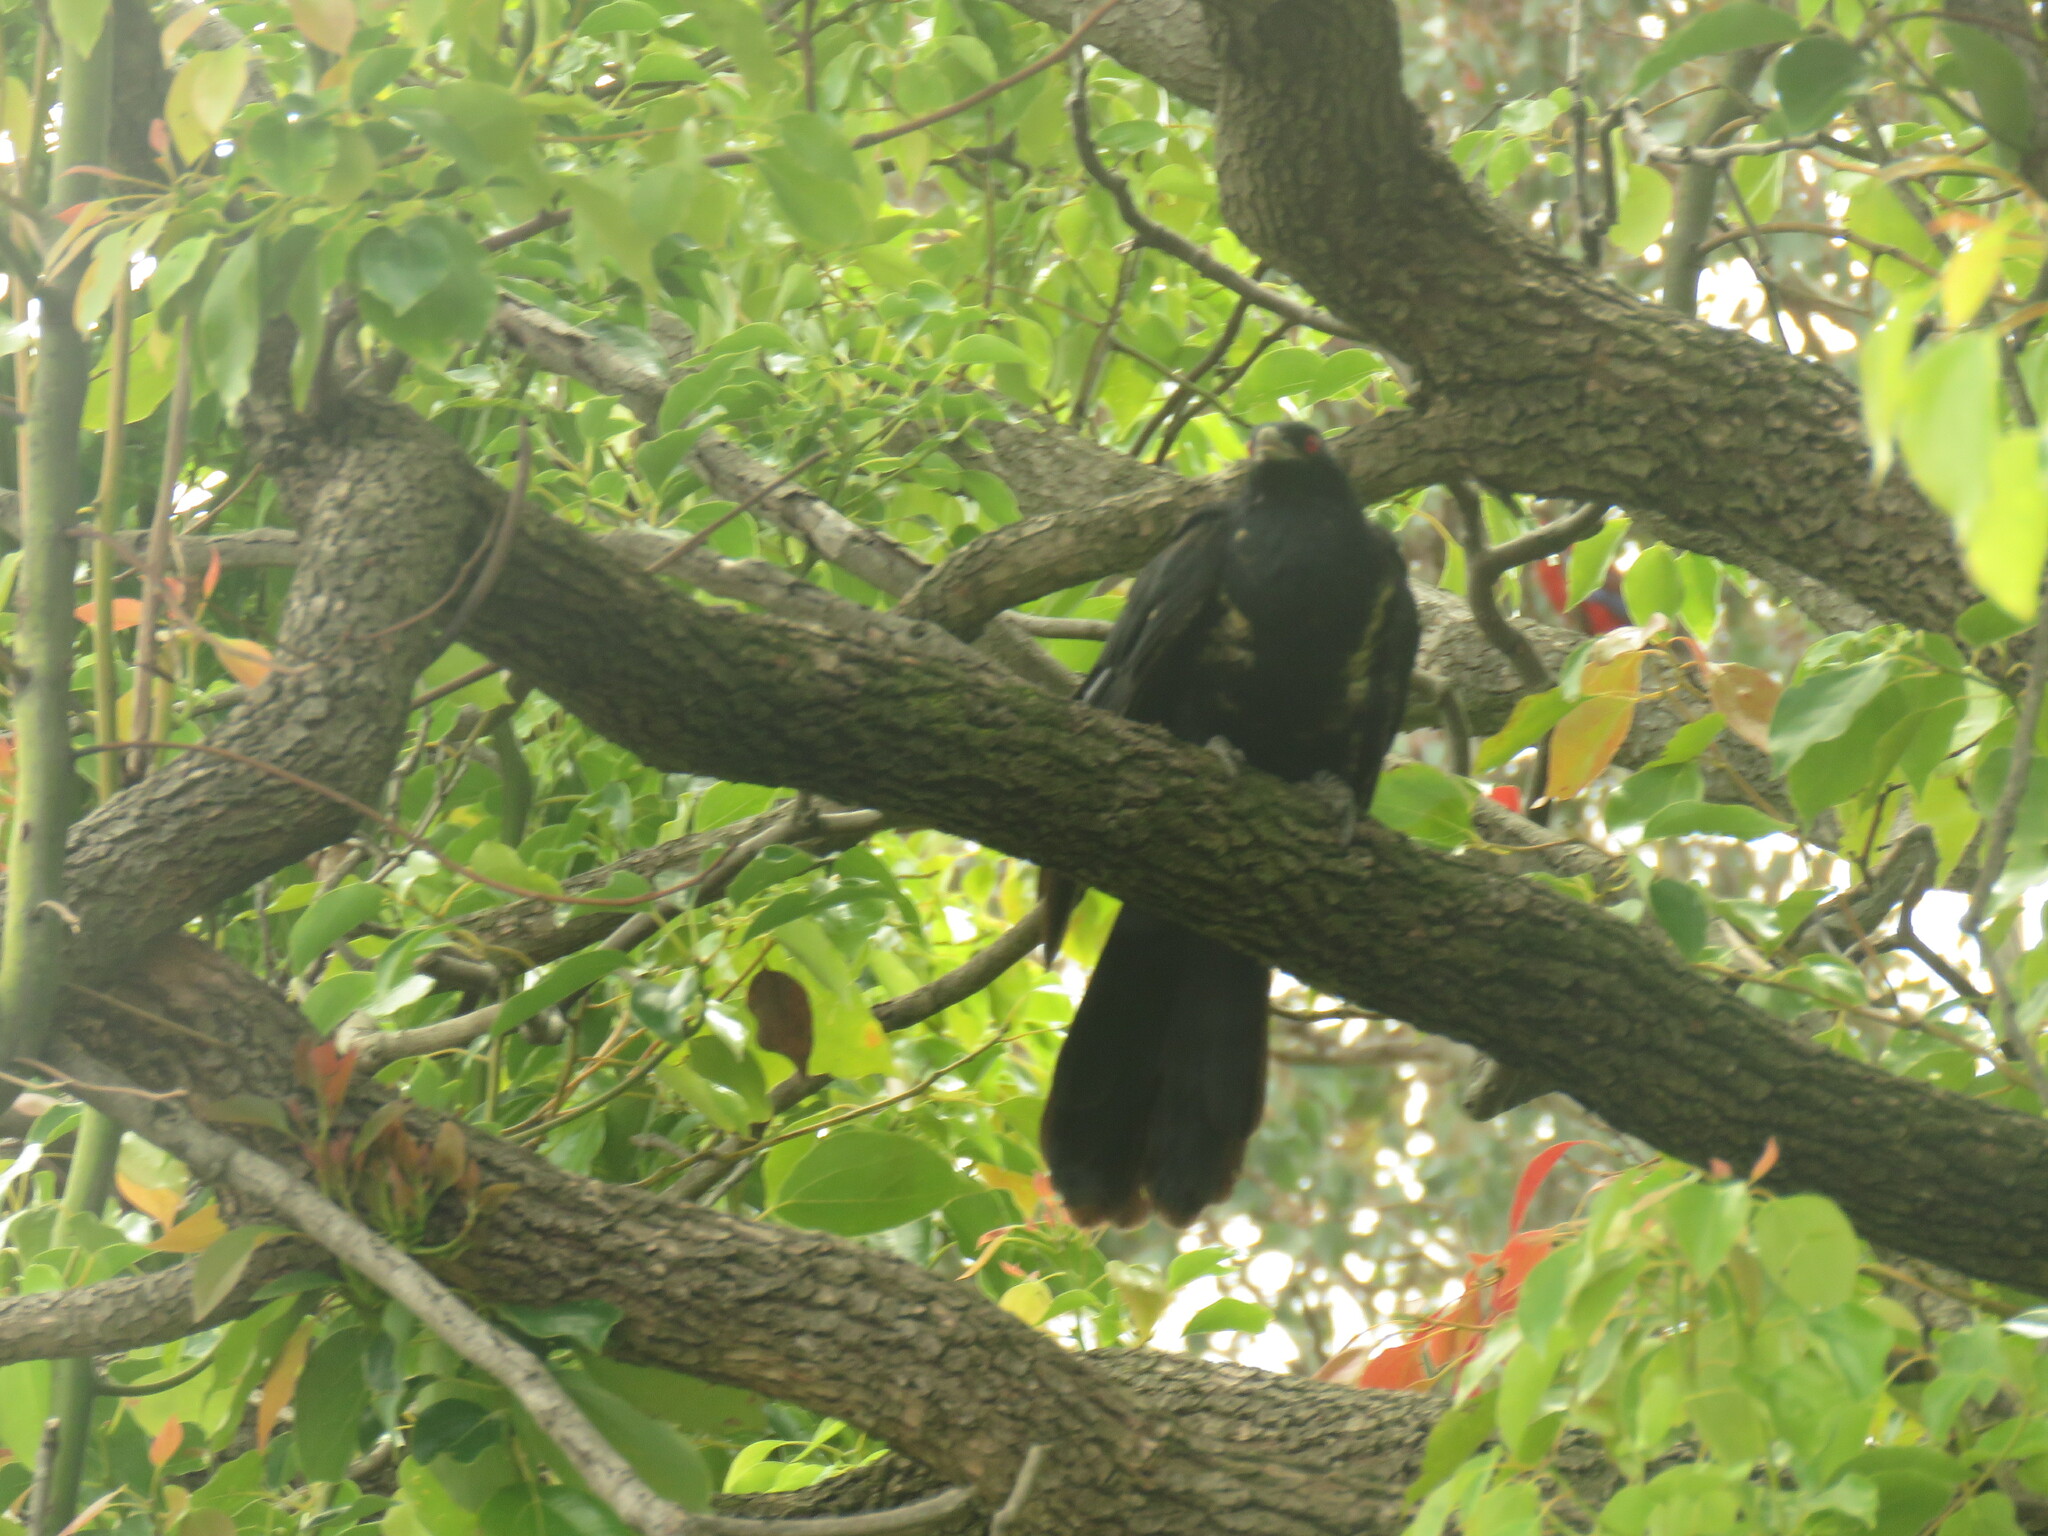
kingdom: Animalia
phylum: Chordata
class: Aves
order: Cuculiformes
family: Cuculidae
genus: Eudynamys
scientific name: Eudynamys orientalis
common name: Pacific koel
